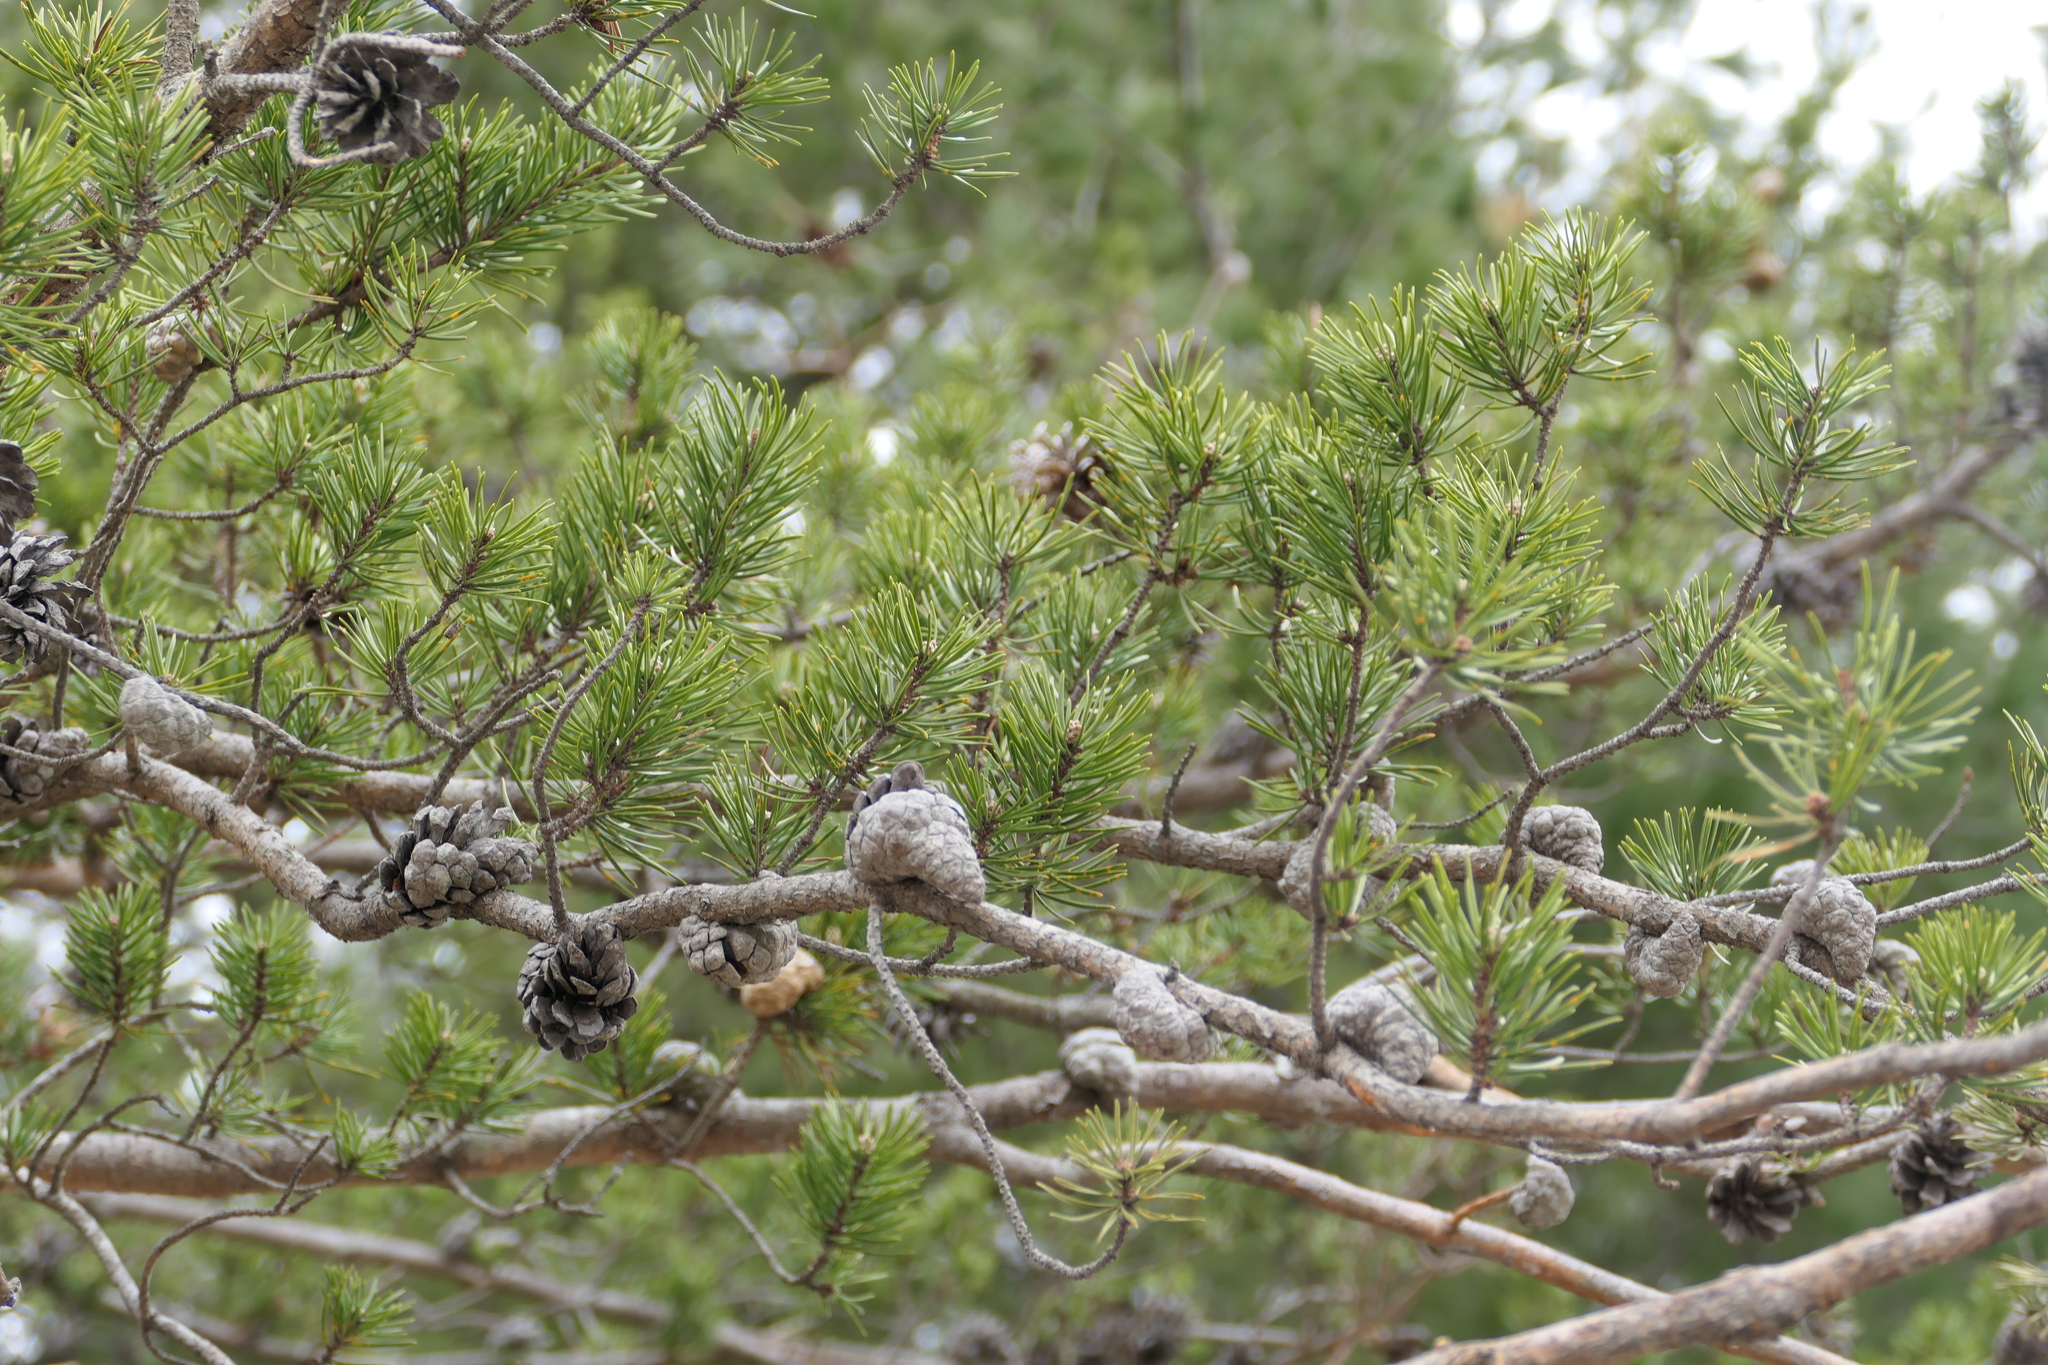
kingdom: Plantae
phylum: Tracheophyta
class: Pinopsida
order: Pinales
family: Pinaceae
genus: Pinus
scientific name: Pinus banksiana
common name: Jack pine
